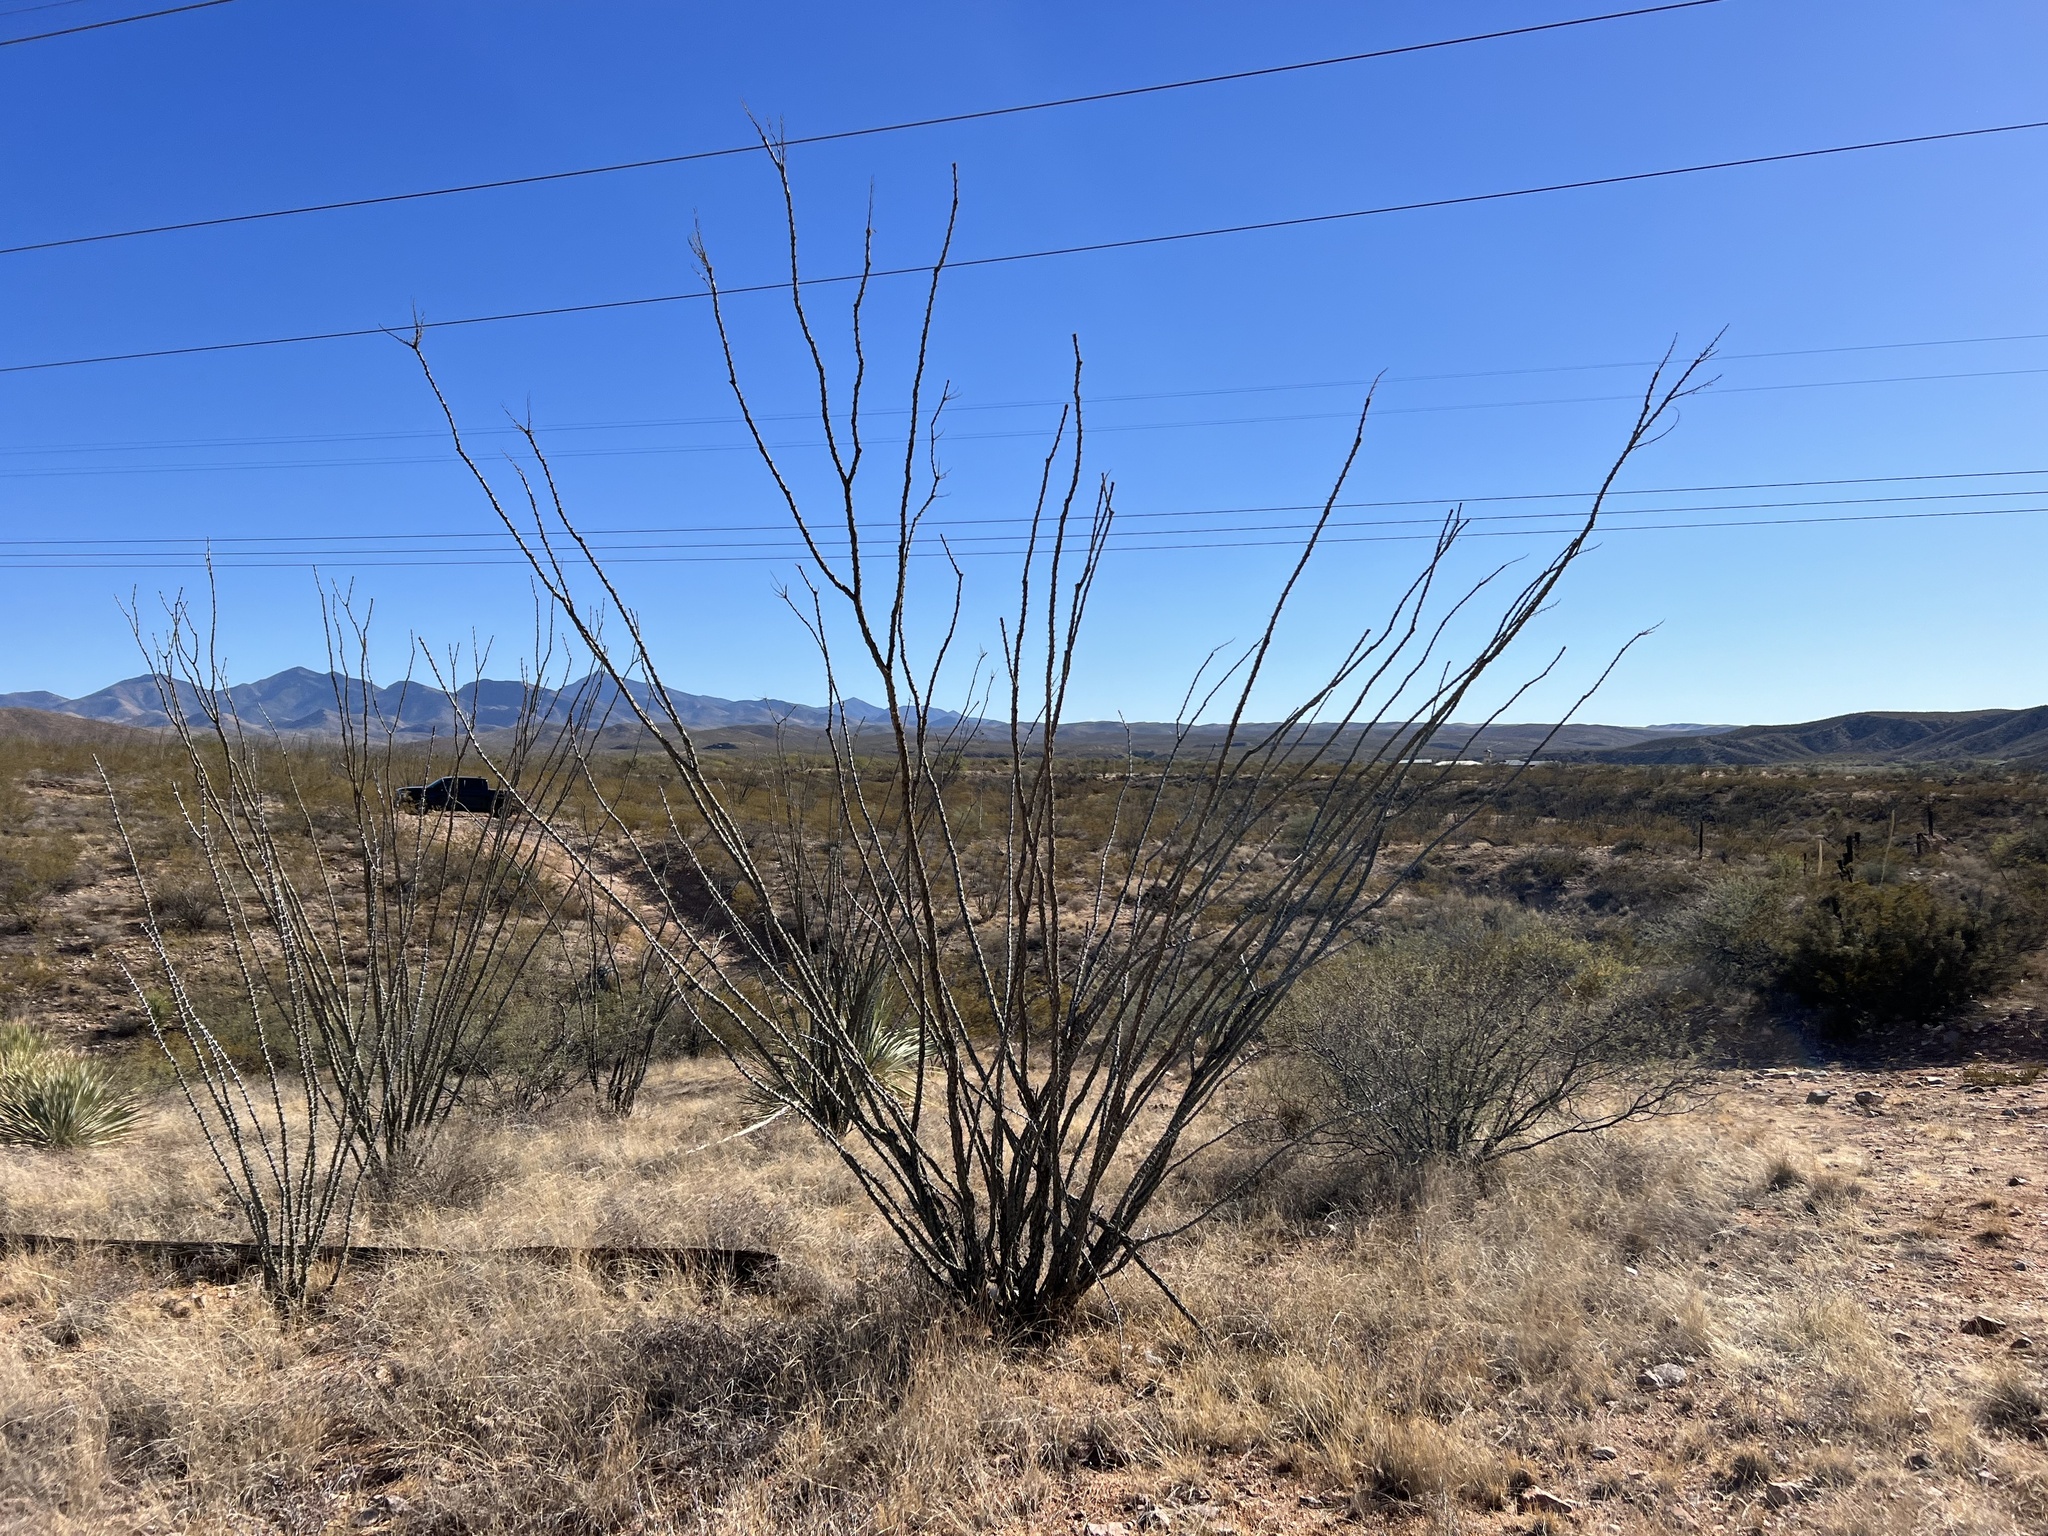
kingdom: Plantae
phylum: Tracheophyta
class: Magnoliopsida
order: Ericales
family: Fouquieriaceae
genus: Fouquieria
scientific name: Fouquieria splendens
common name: Vine-cactus
